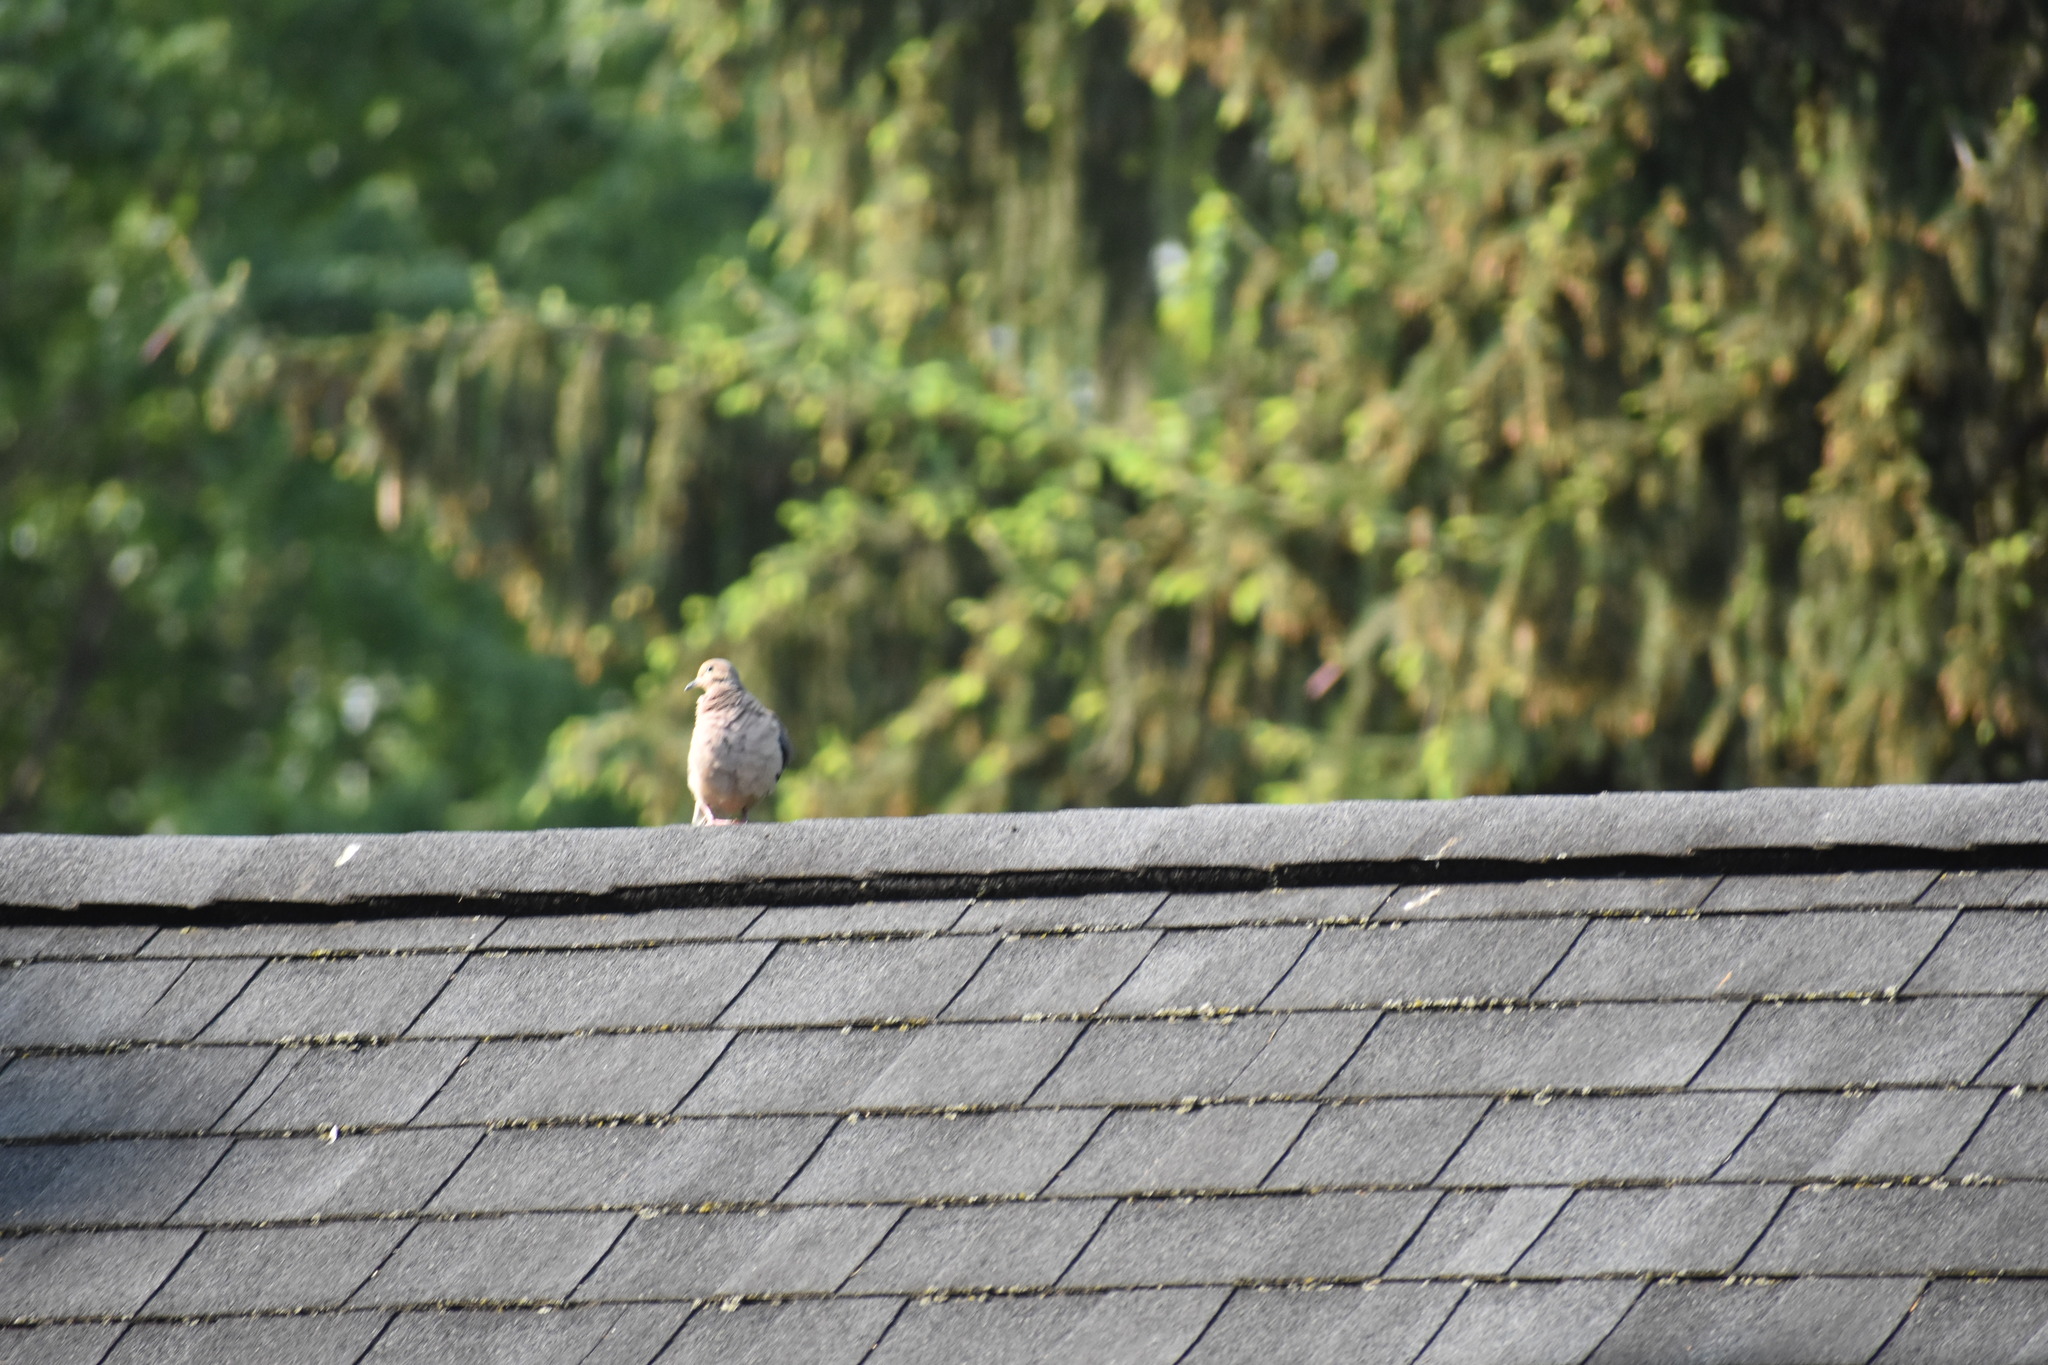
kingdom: Animalia
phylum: Chordata
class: Aves
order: Columbiformes
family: Columbidae
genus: Zenaida
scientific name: Zenaida macroura
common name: Mourning dove
